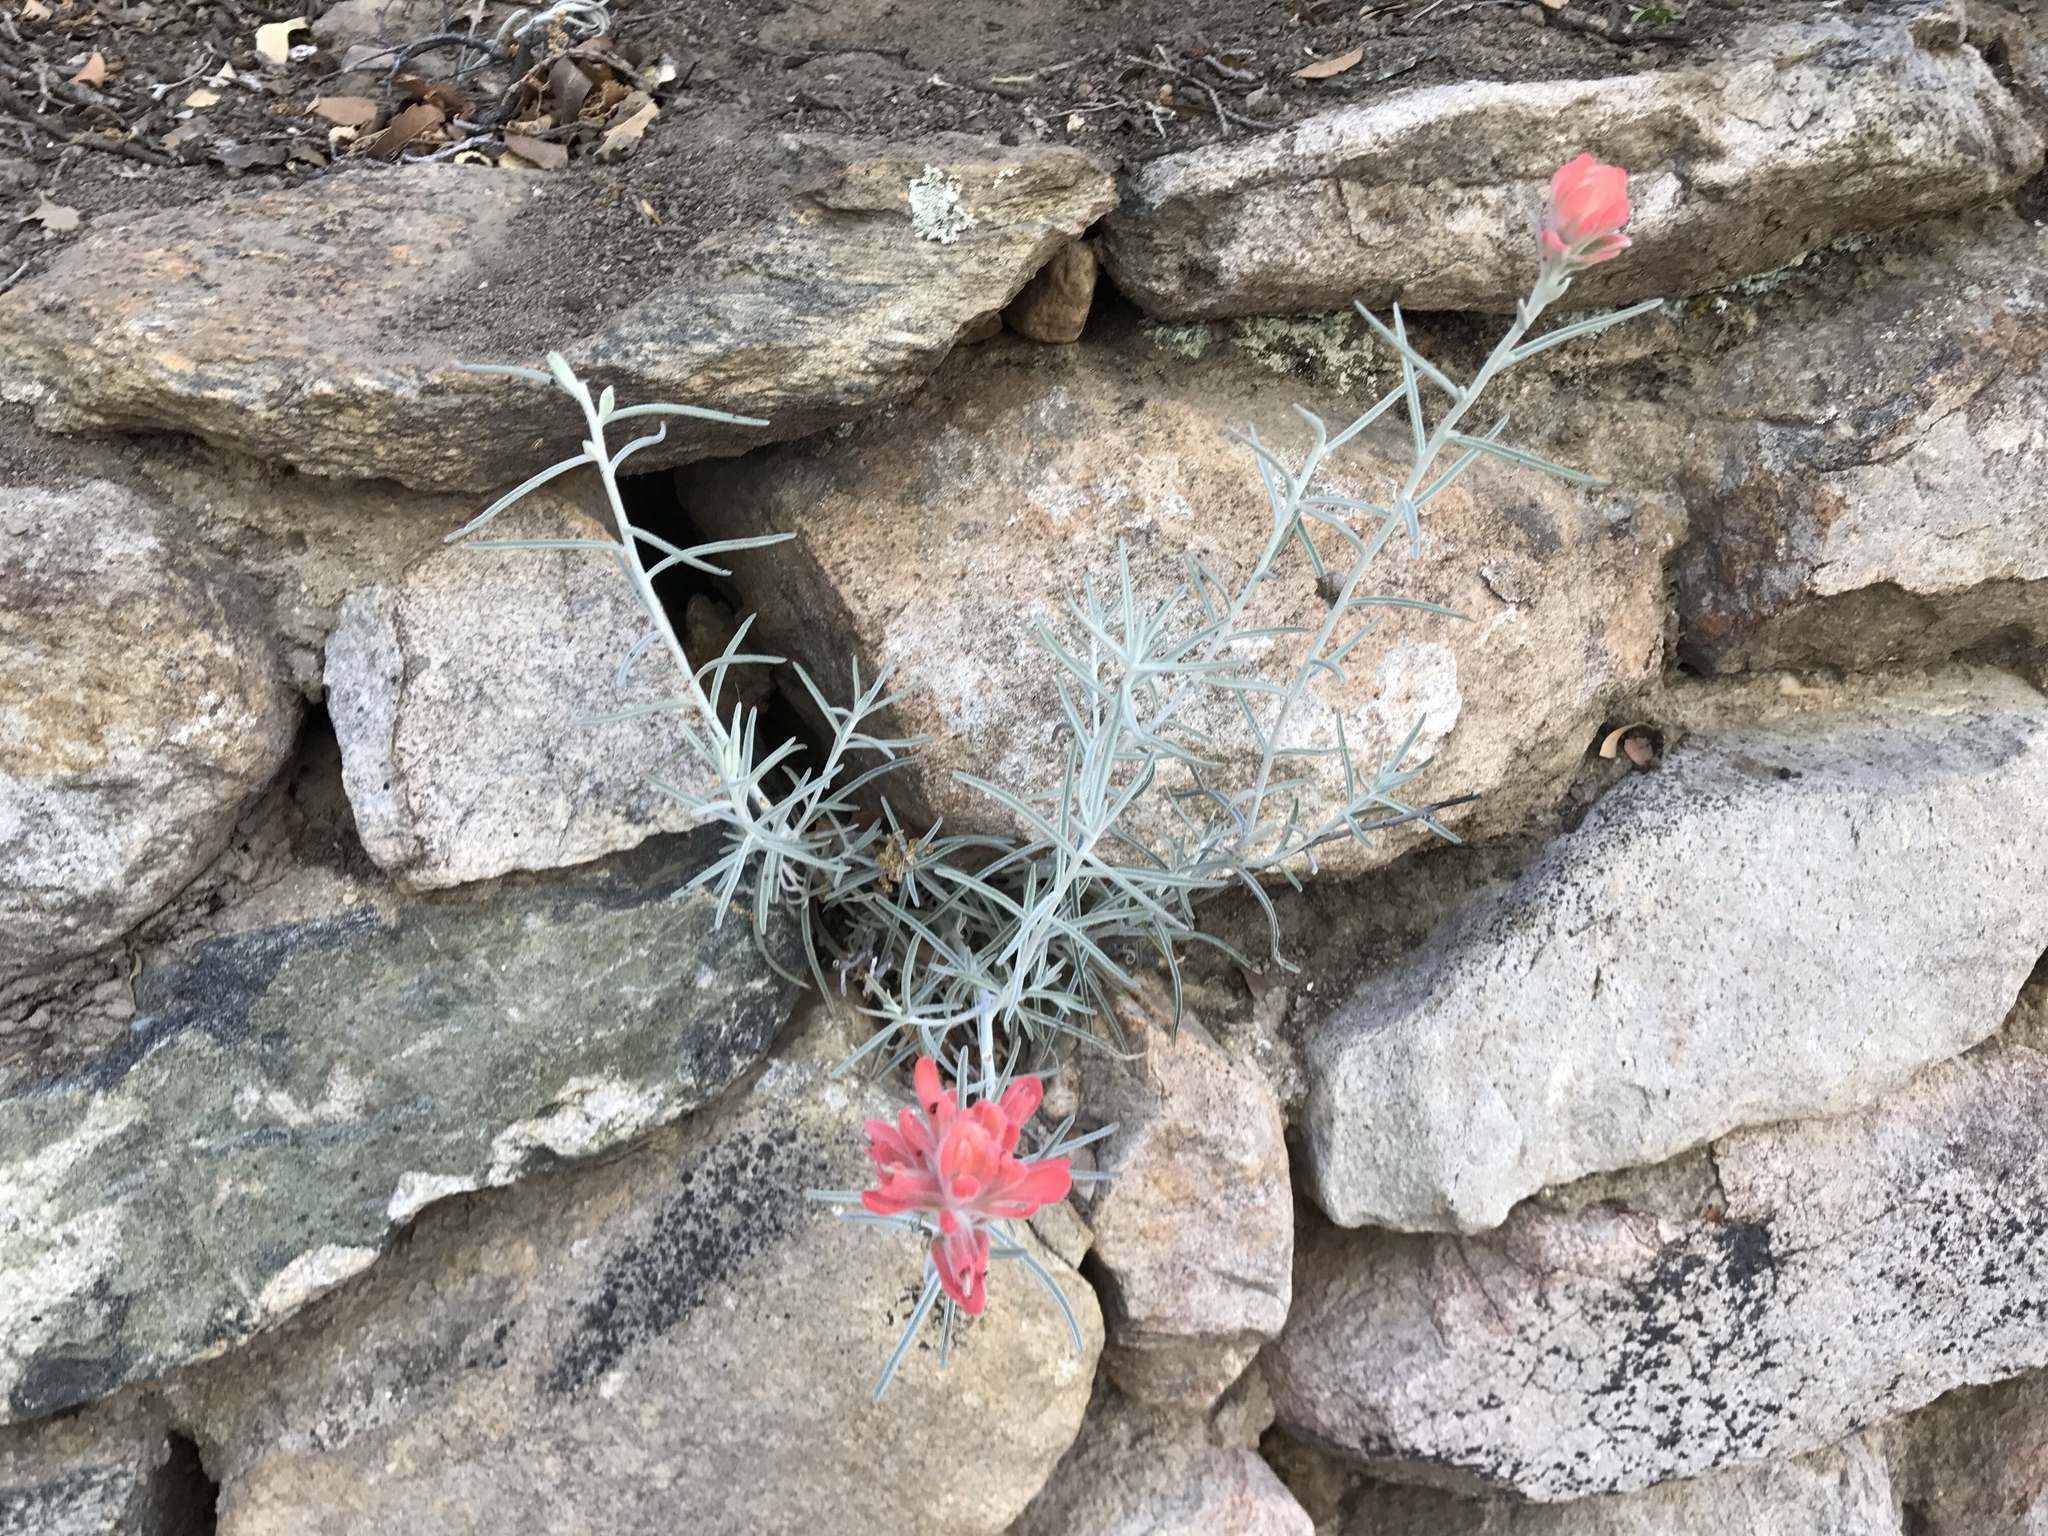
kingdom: Plantae
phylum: Tracheophyta
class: Magnoliopsida
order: Lamiales
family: Orobanchaceae
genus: Castilleja
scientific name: Castilleja lanata
